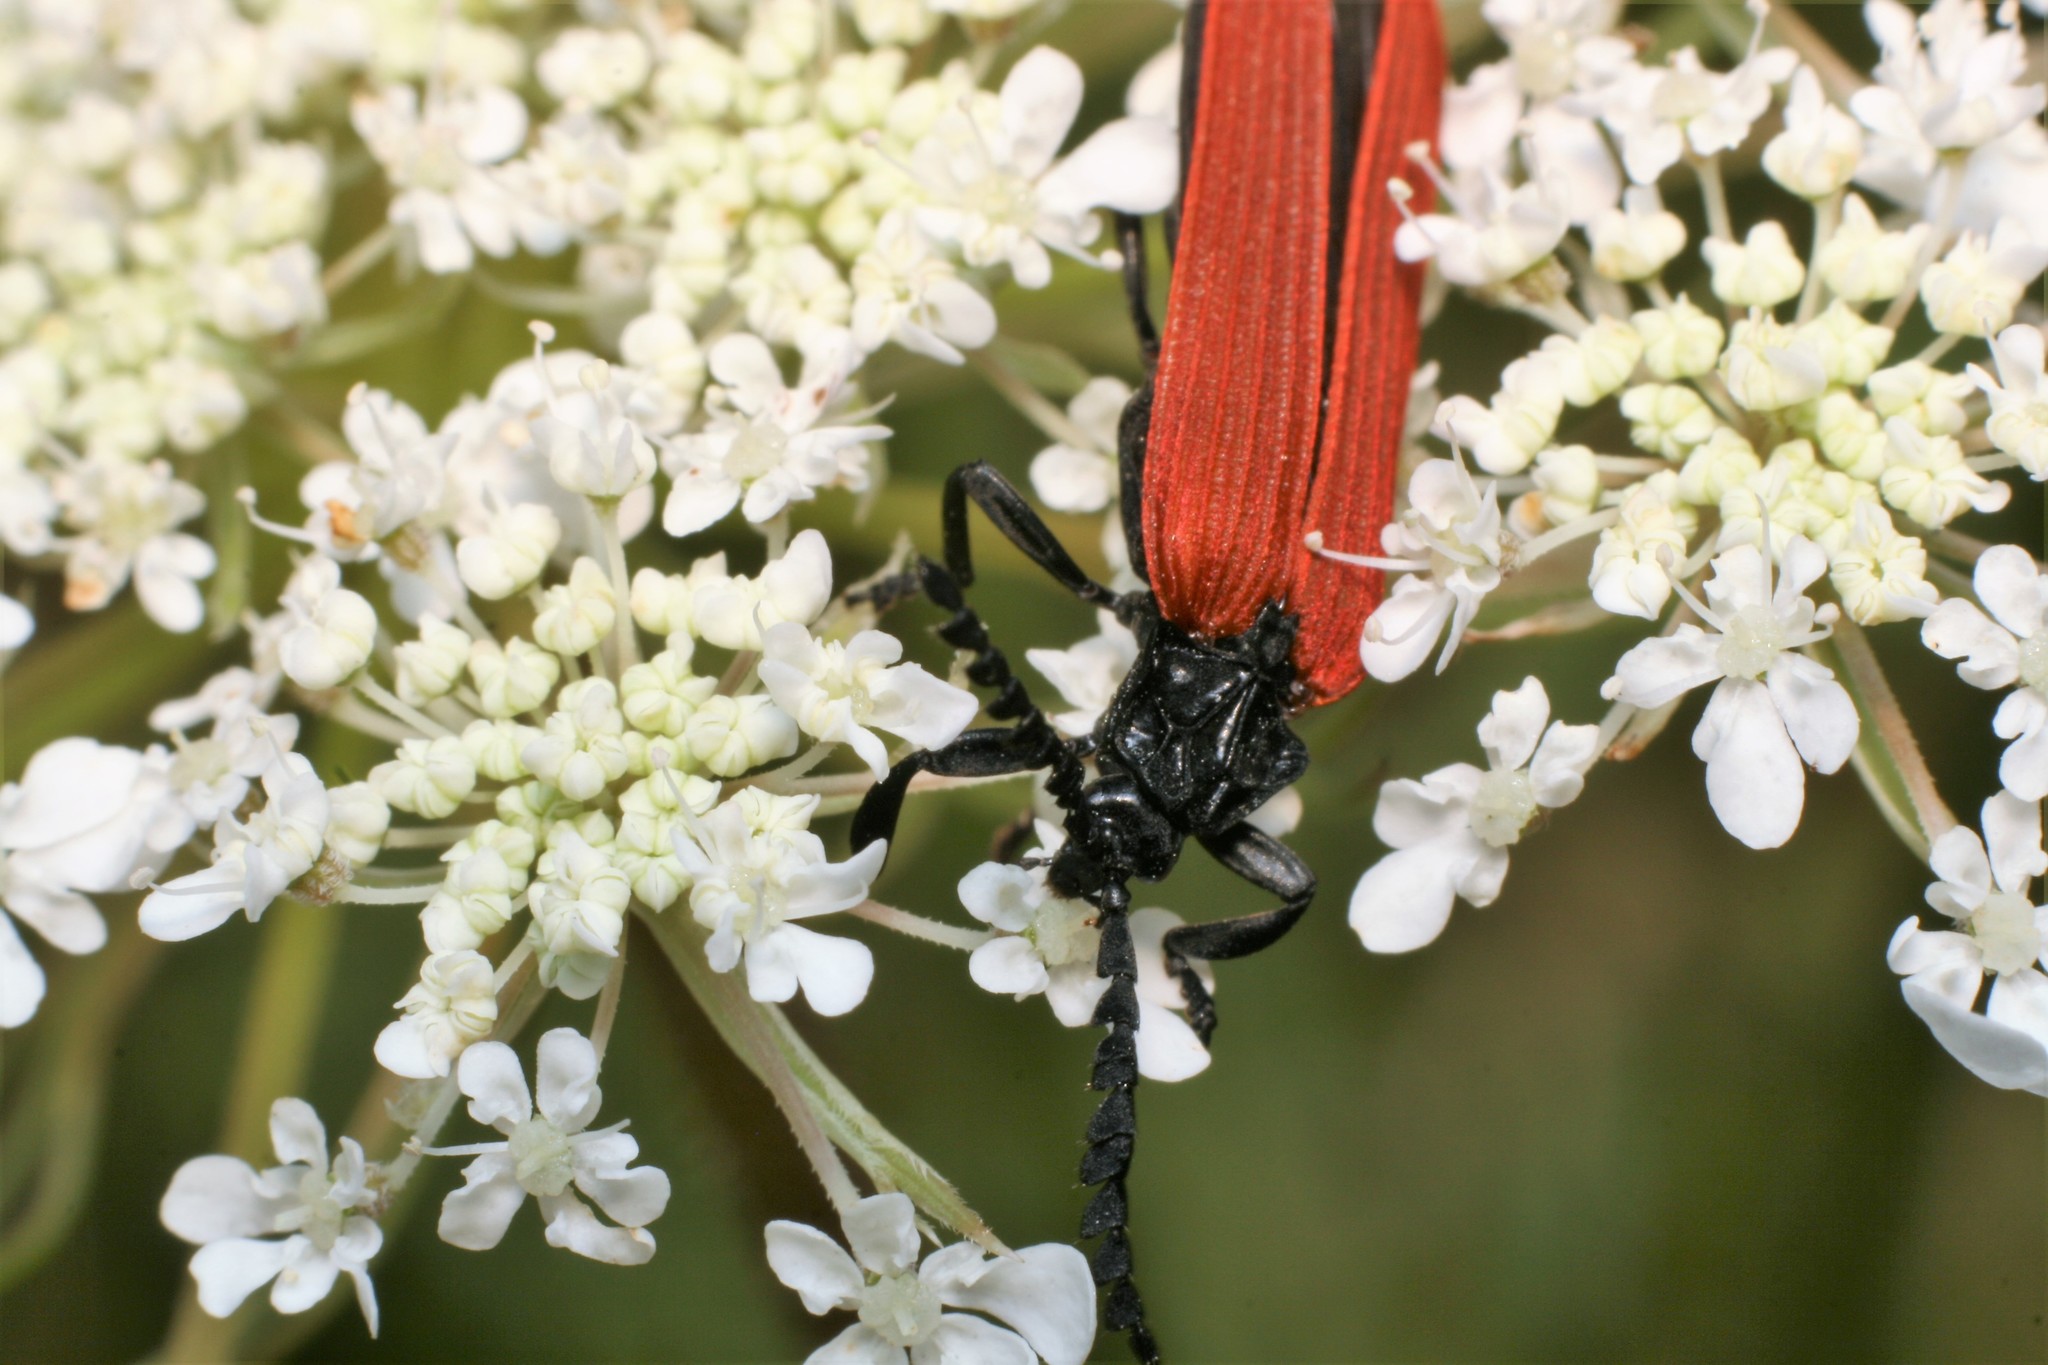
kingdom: Animalia
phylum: Arthropoda
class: Insecta
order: Coleoptera
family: Lycidae
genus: Porrostoma
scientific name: Porrostoma rufipenne
